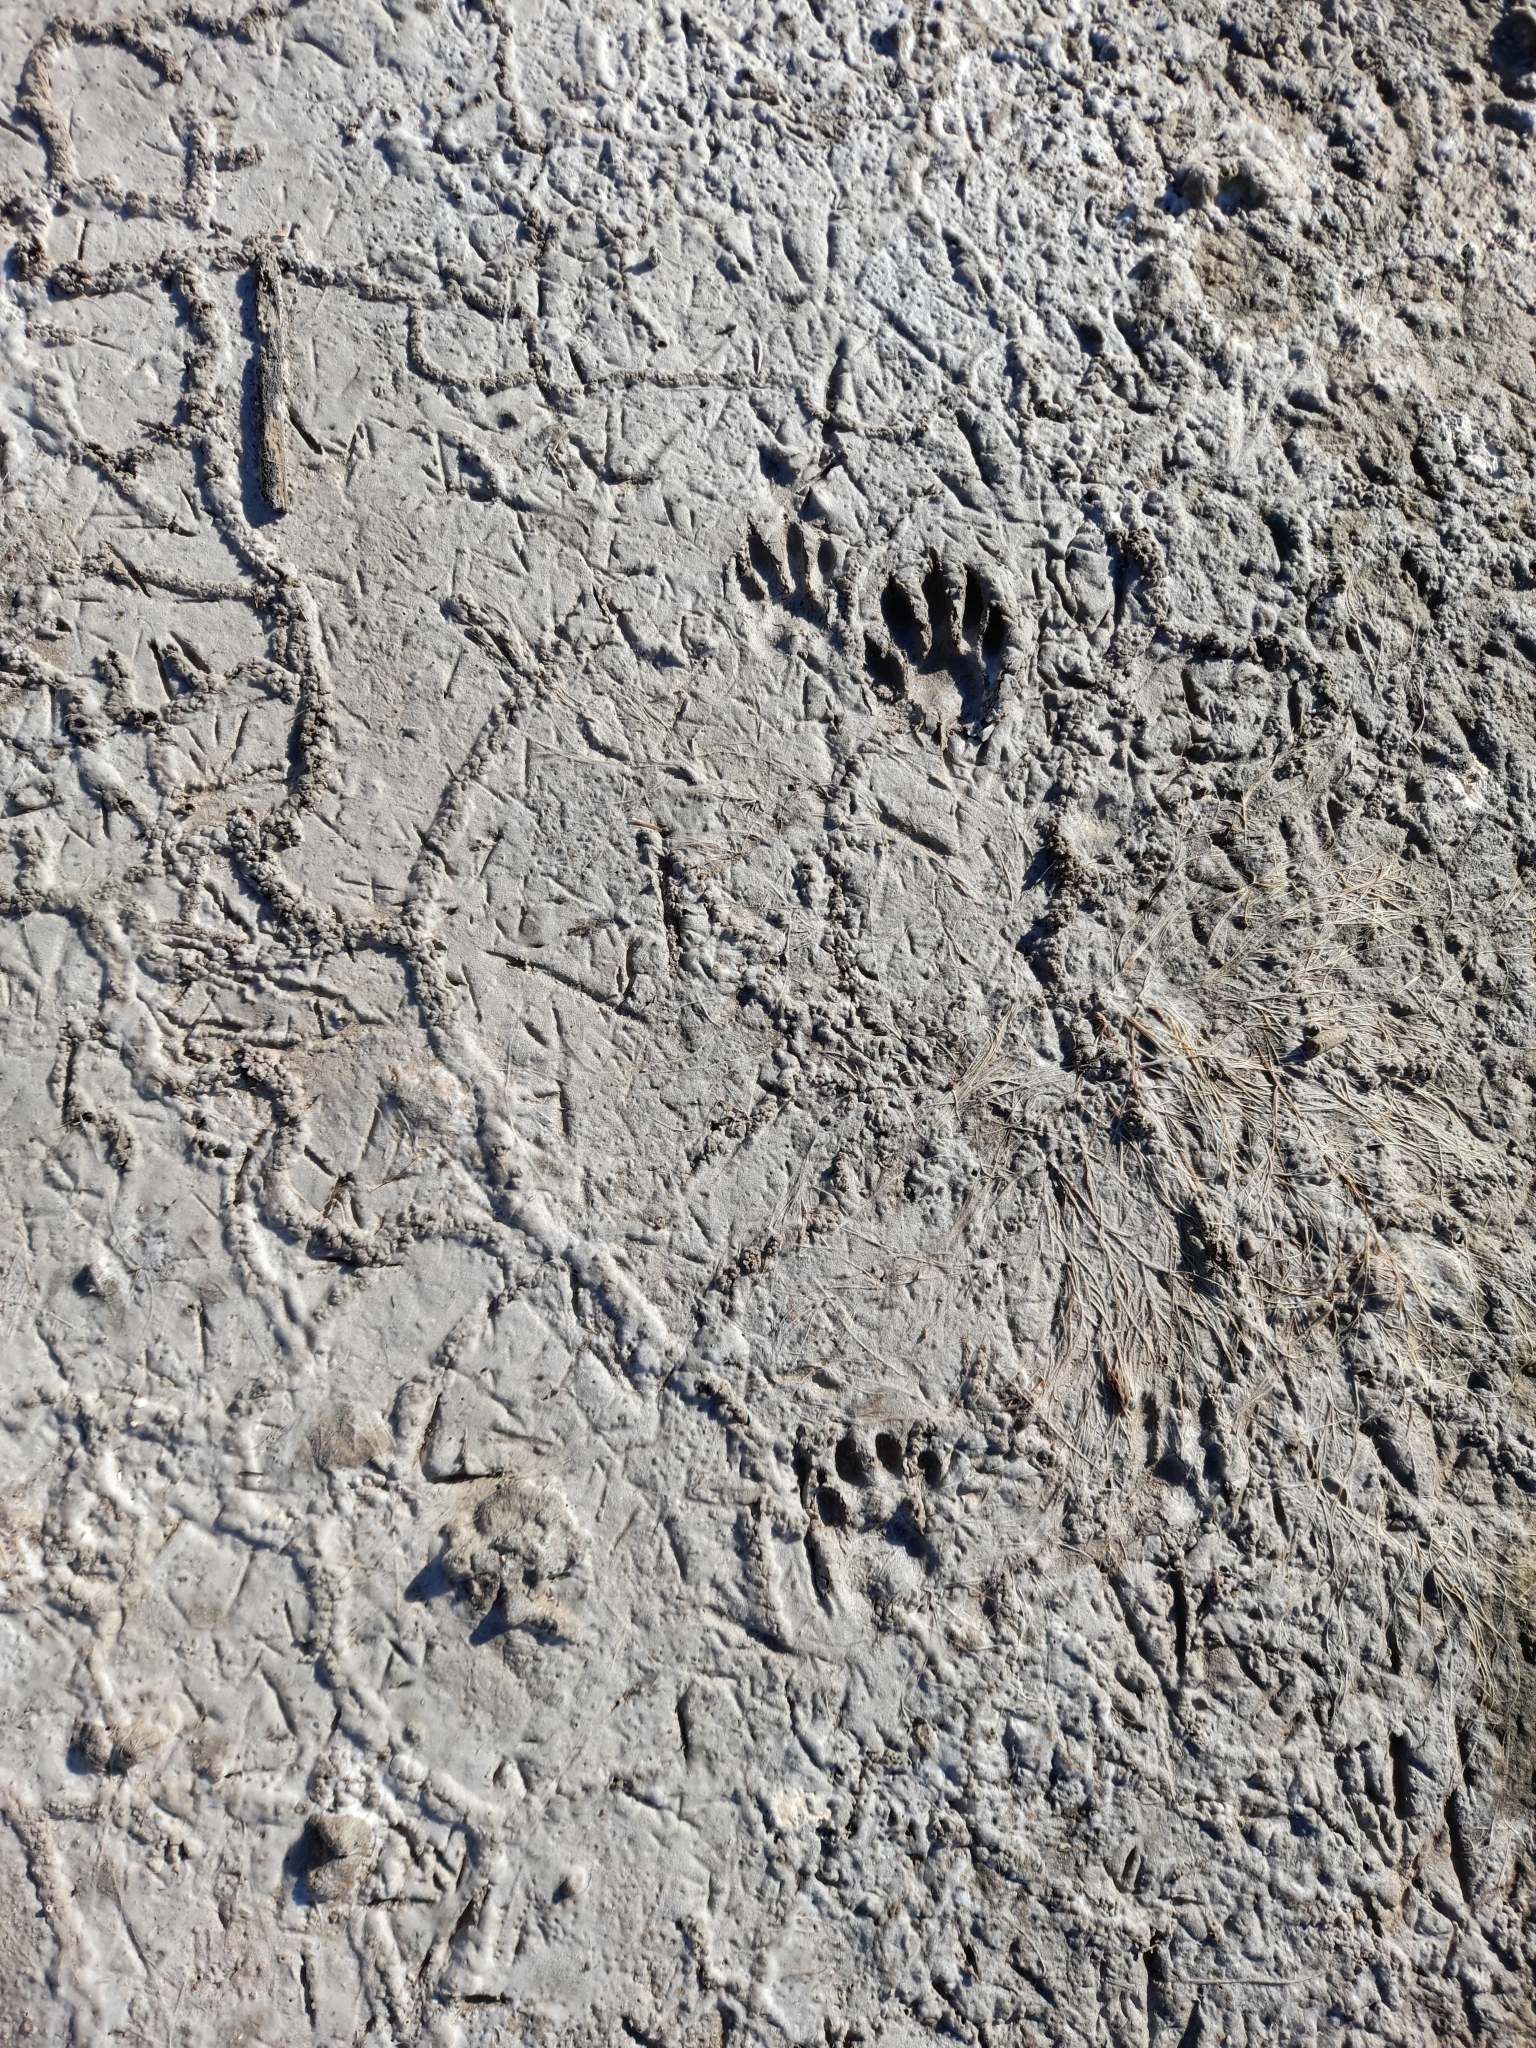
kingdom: Animalia
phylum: Chordata
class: Mammalia
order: Carnivora
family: Procyonidae
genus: Procyon
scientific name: Procyon cancrivorus
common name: Crab-eating raccoon
